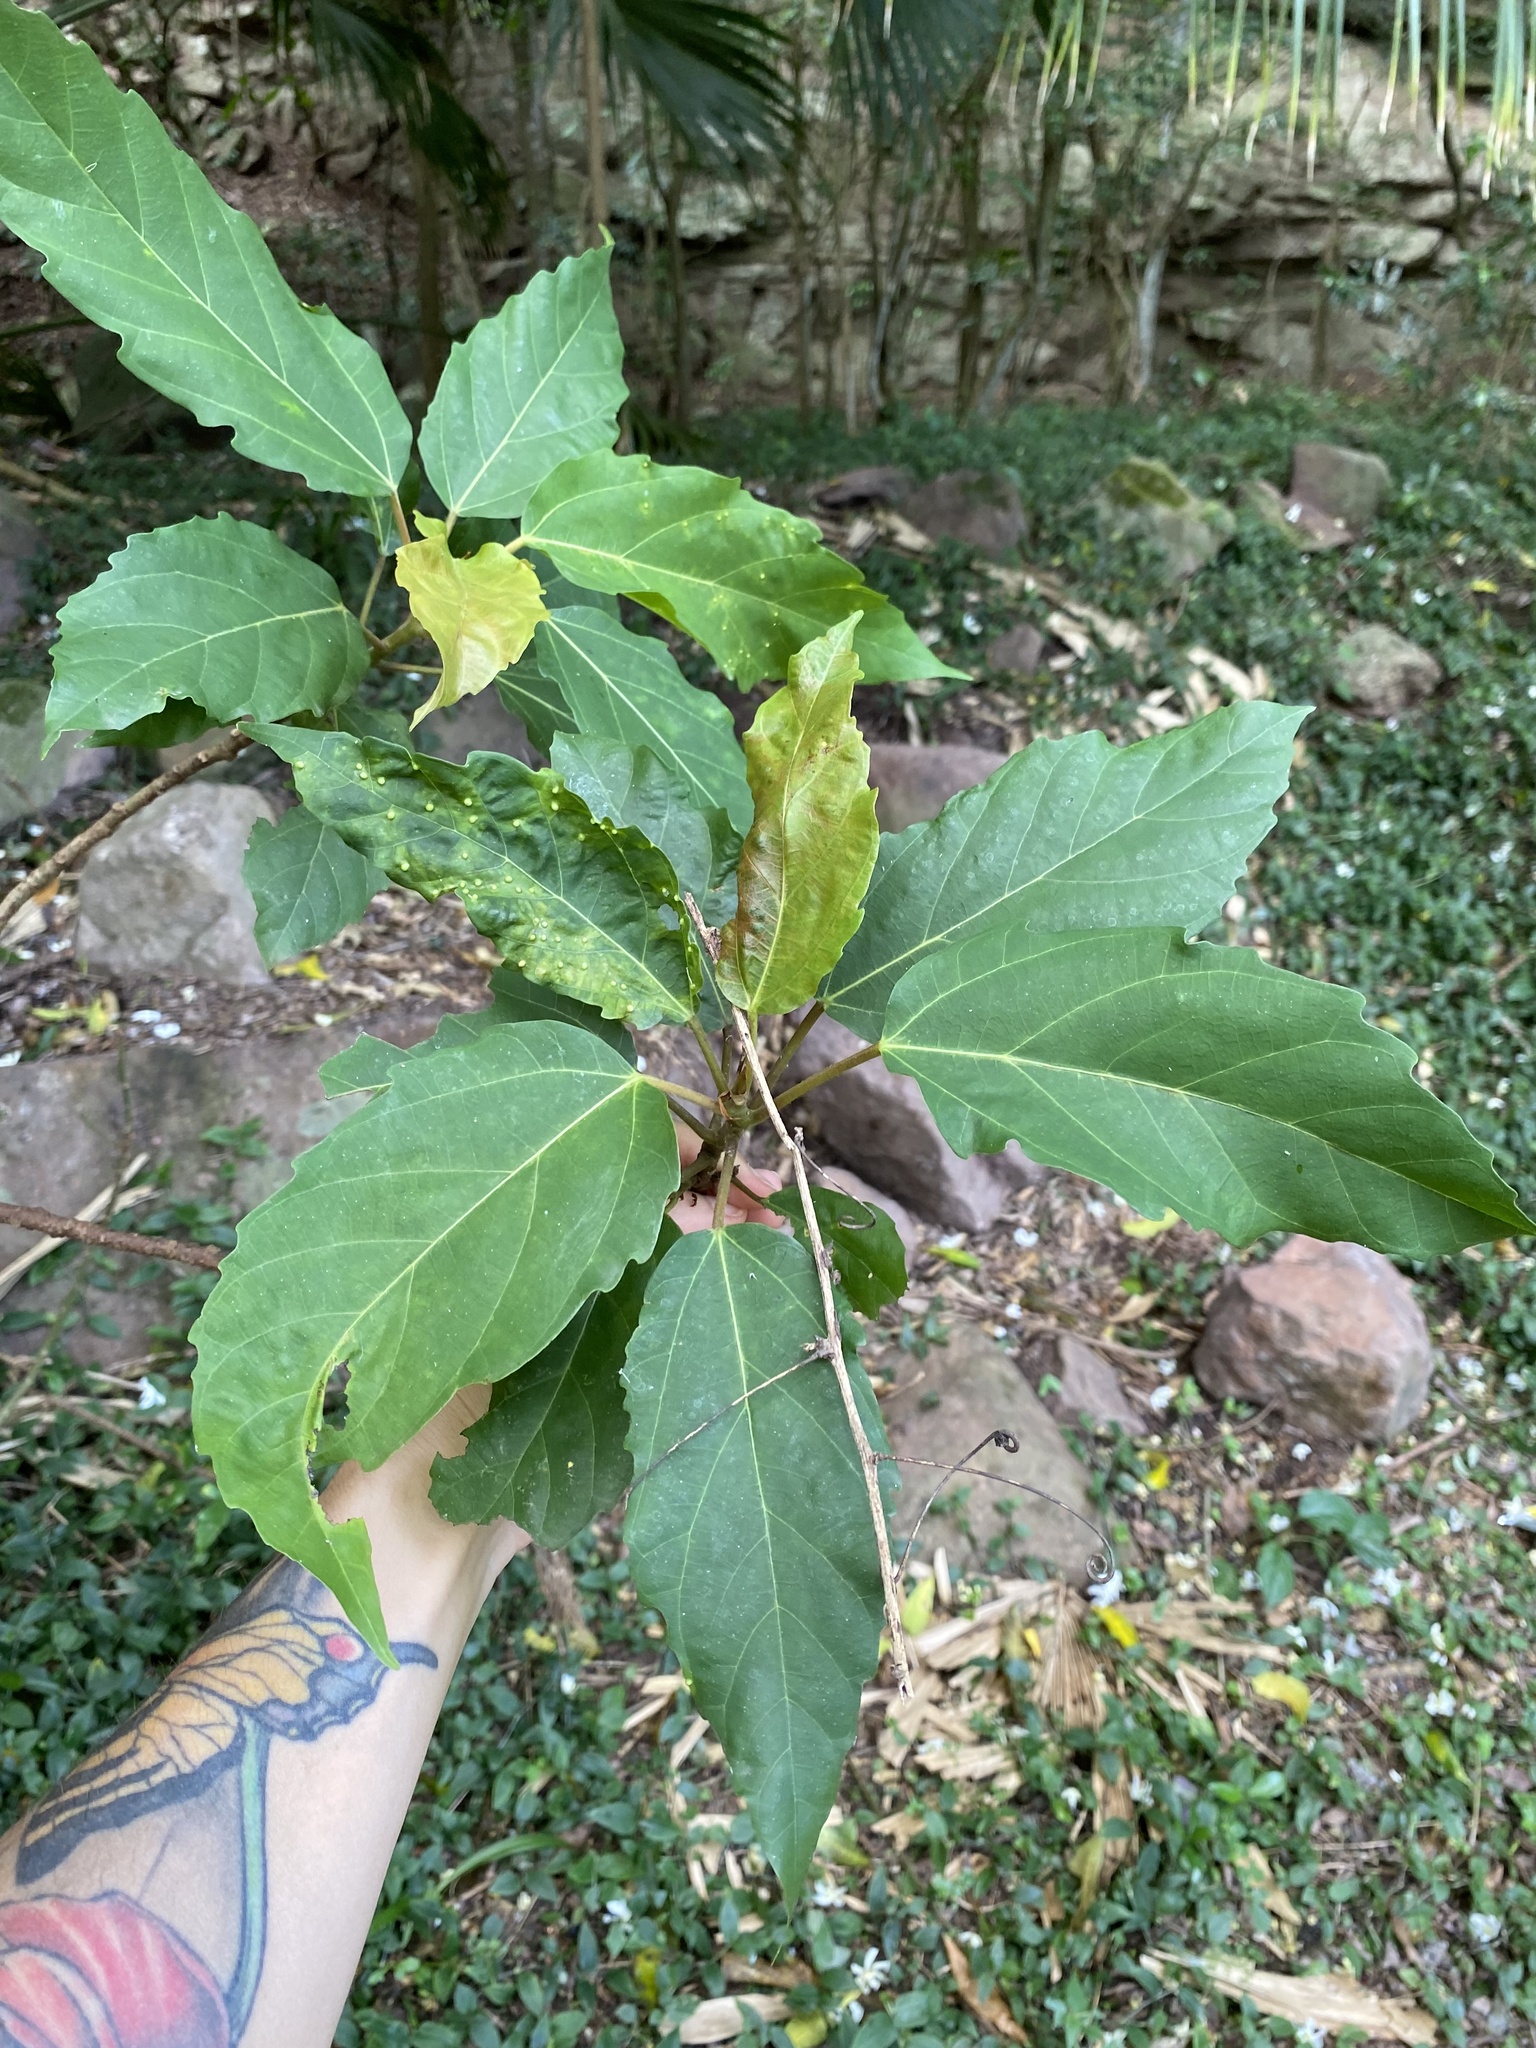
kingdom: Plantae
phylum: Tracheophyta
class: Magnoliopsida
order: Rosales
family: Moraceae
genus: Ficus
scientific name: Ficus sur
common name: Cape fig
